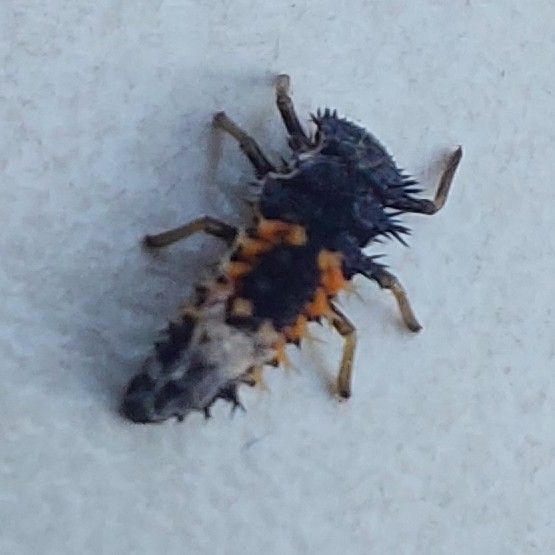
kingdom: Animalia
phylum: Arthropoda
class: Insecta
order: Coleoptera
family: Coccinellidae
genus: Harmonia
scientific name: Harmonia axyridis
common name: Harlequin ladybird
